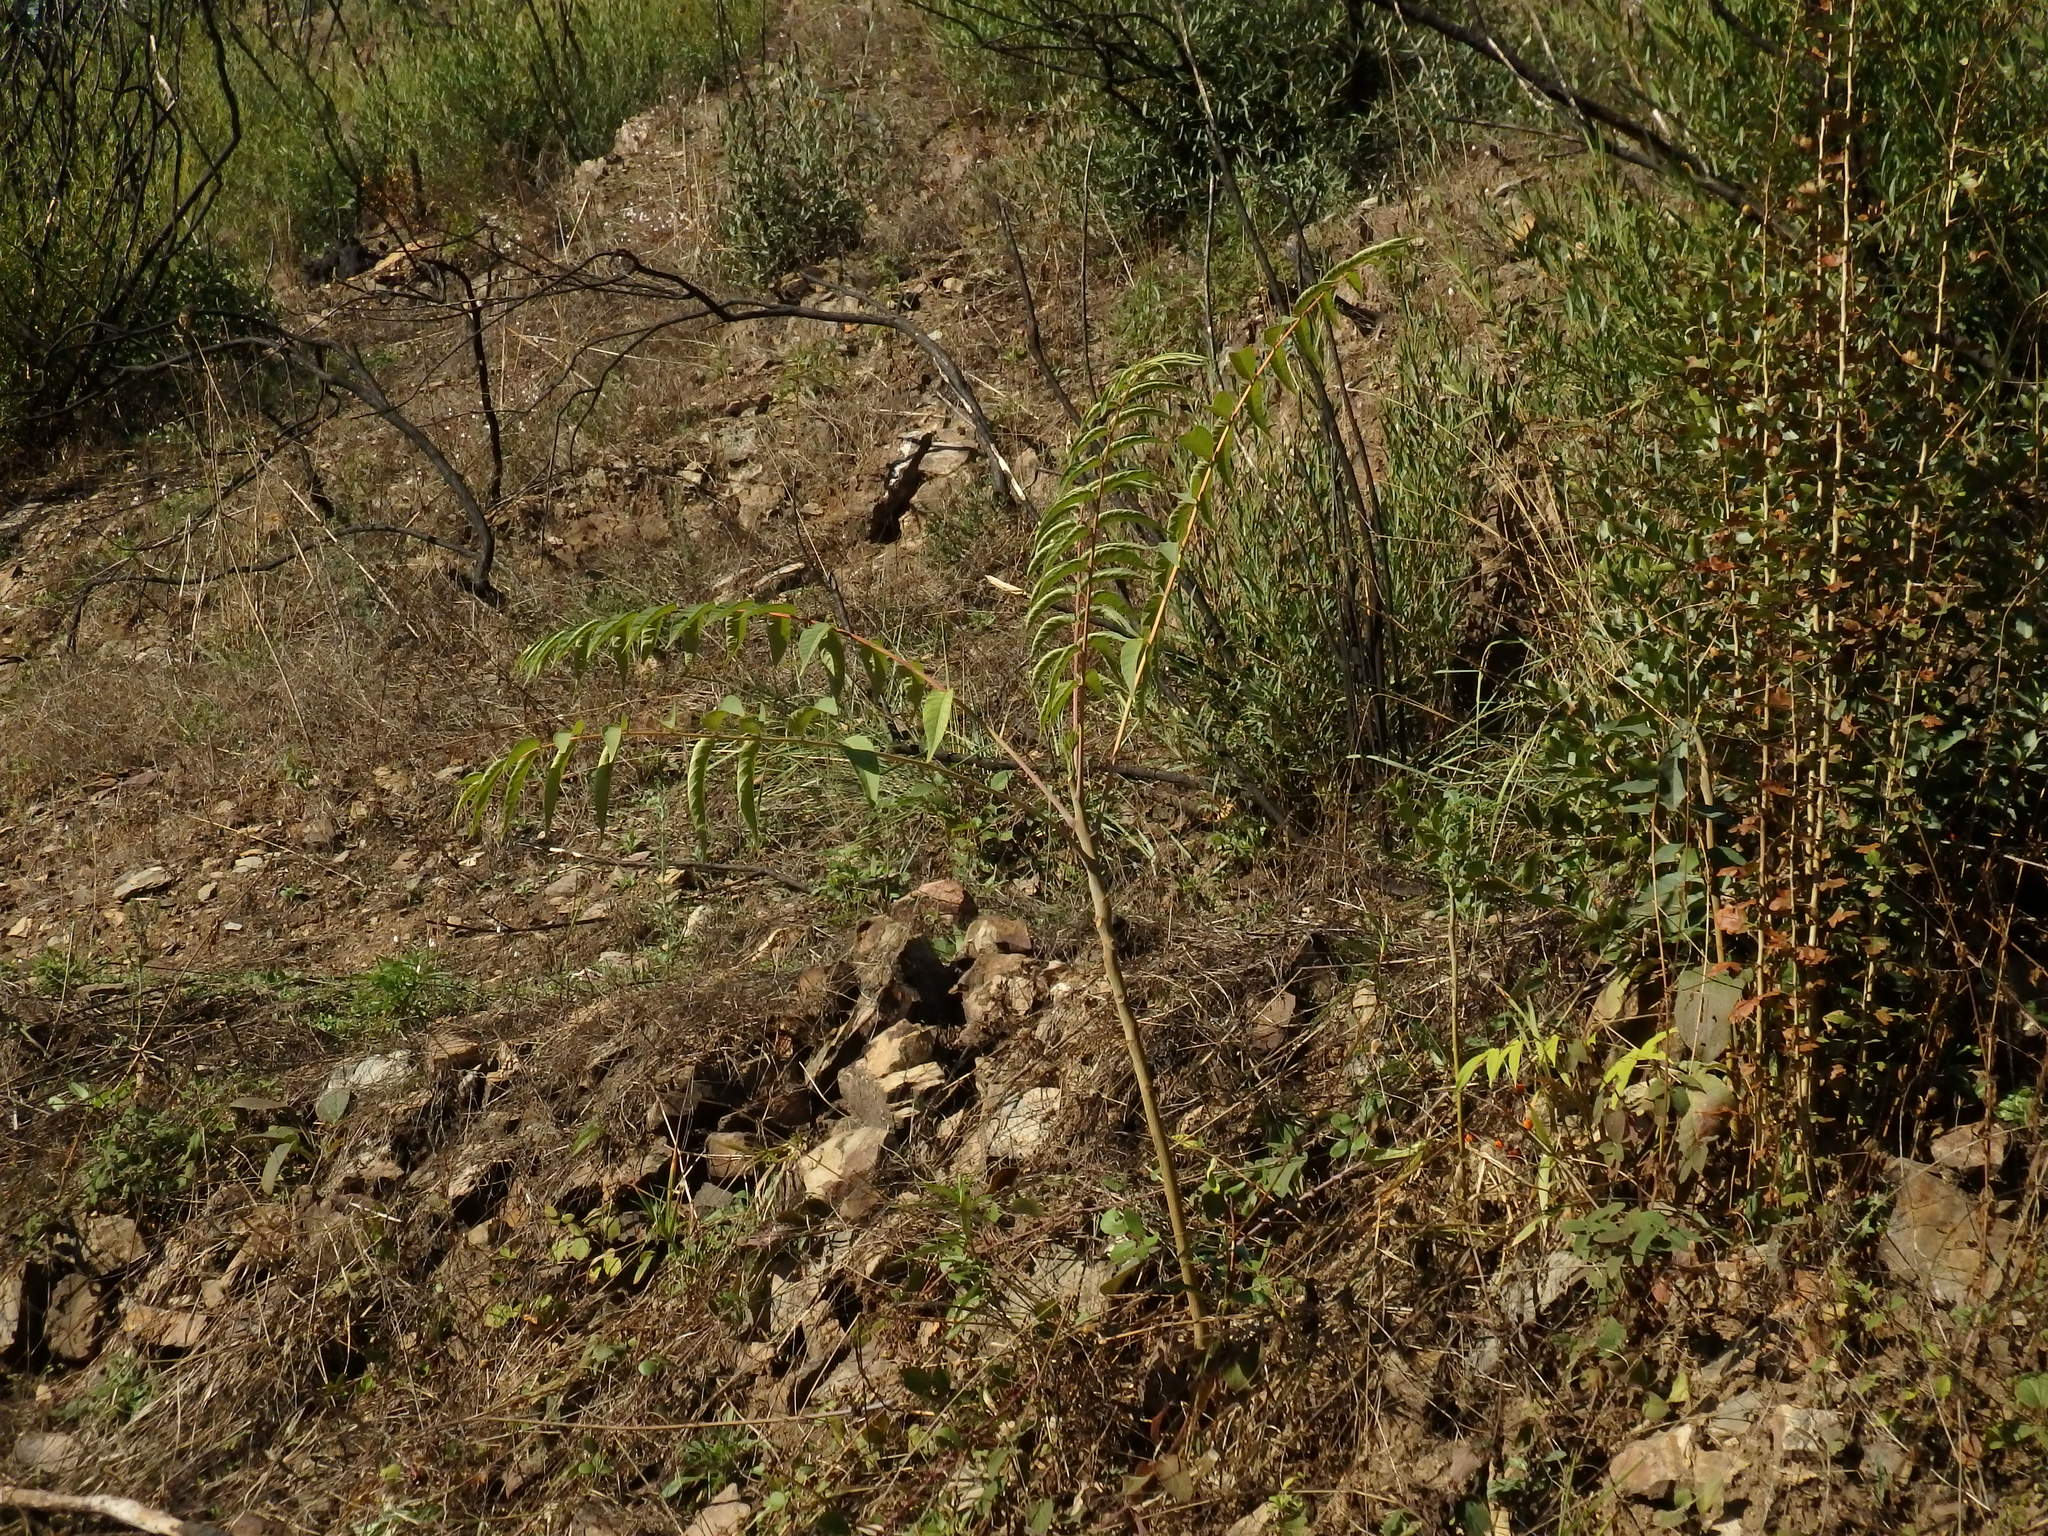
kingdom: Plantae
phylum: Tracheophyta
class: Magnoliopsida
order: Sapindales
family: Simaroubaceae
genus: Ailanthus
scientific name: Ailanthus altissima
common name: Tree-of-heaven
